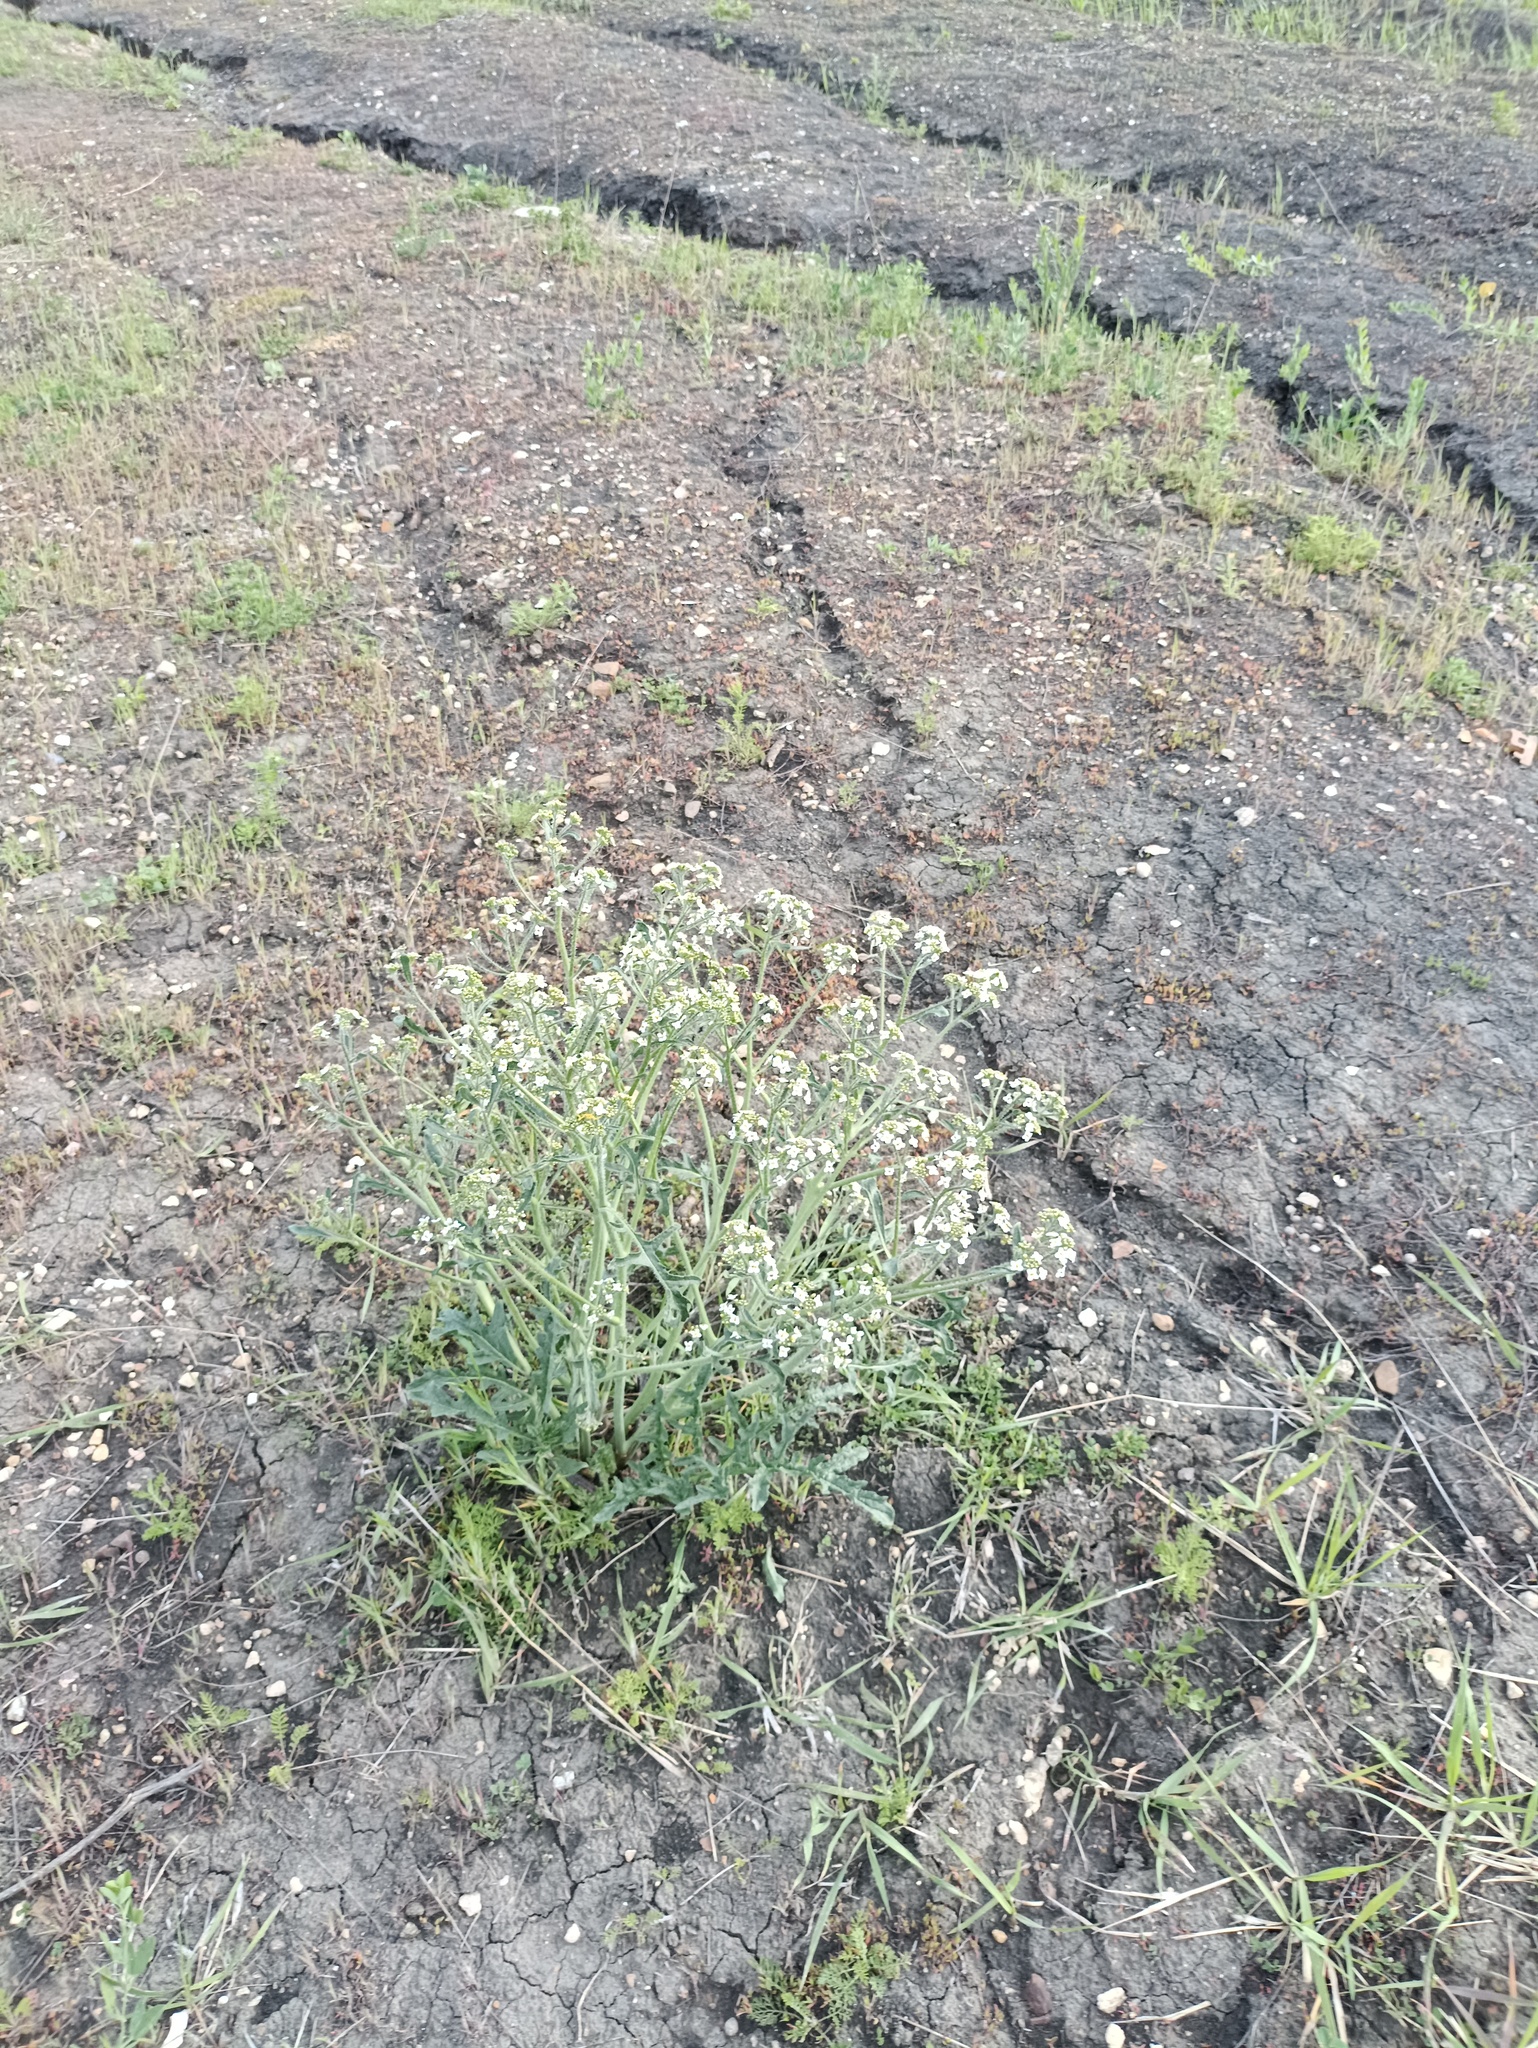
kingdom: Plantae
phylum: Tracheophyta
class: Magnoliopsida
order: Brassicales
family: Brassicaceae
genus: Crambe
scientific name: Crambe tataria
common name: Tartarian breadplant
